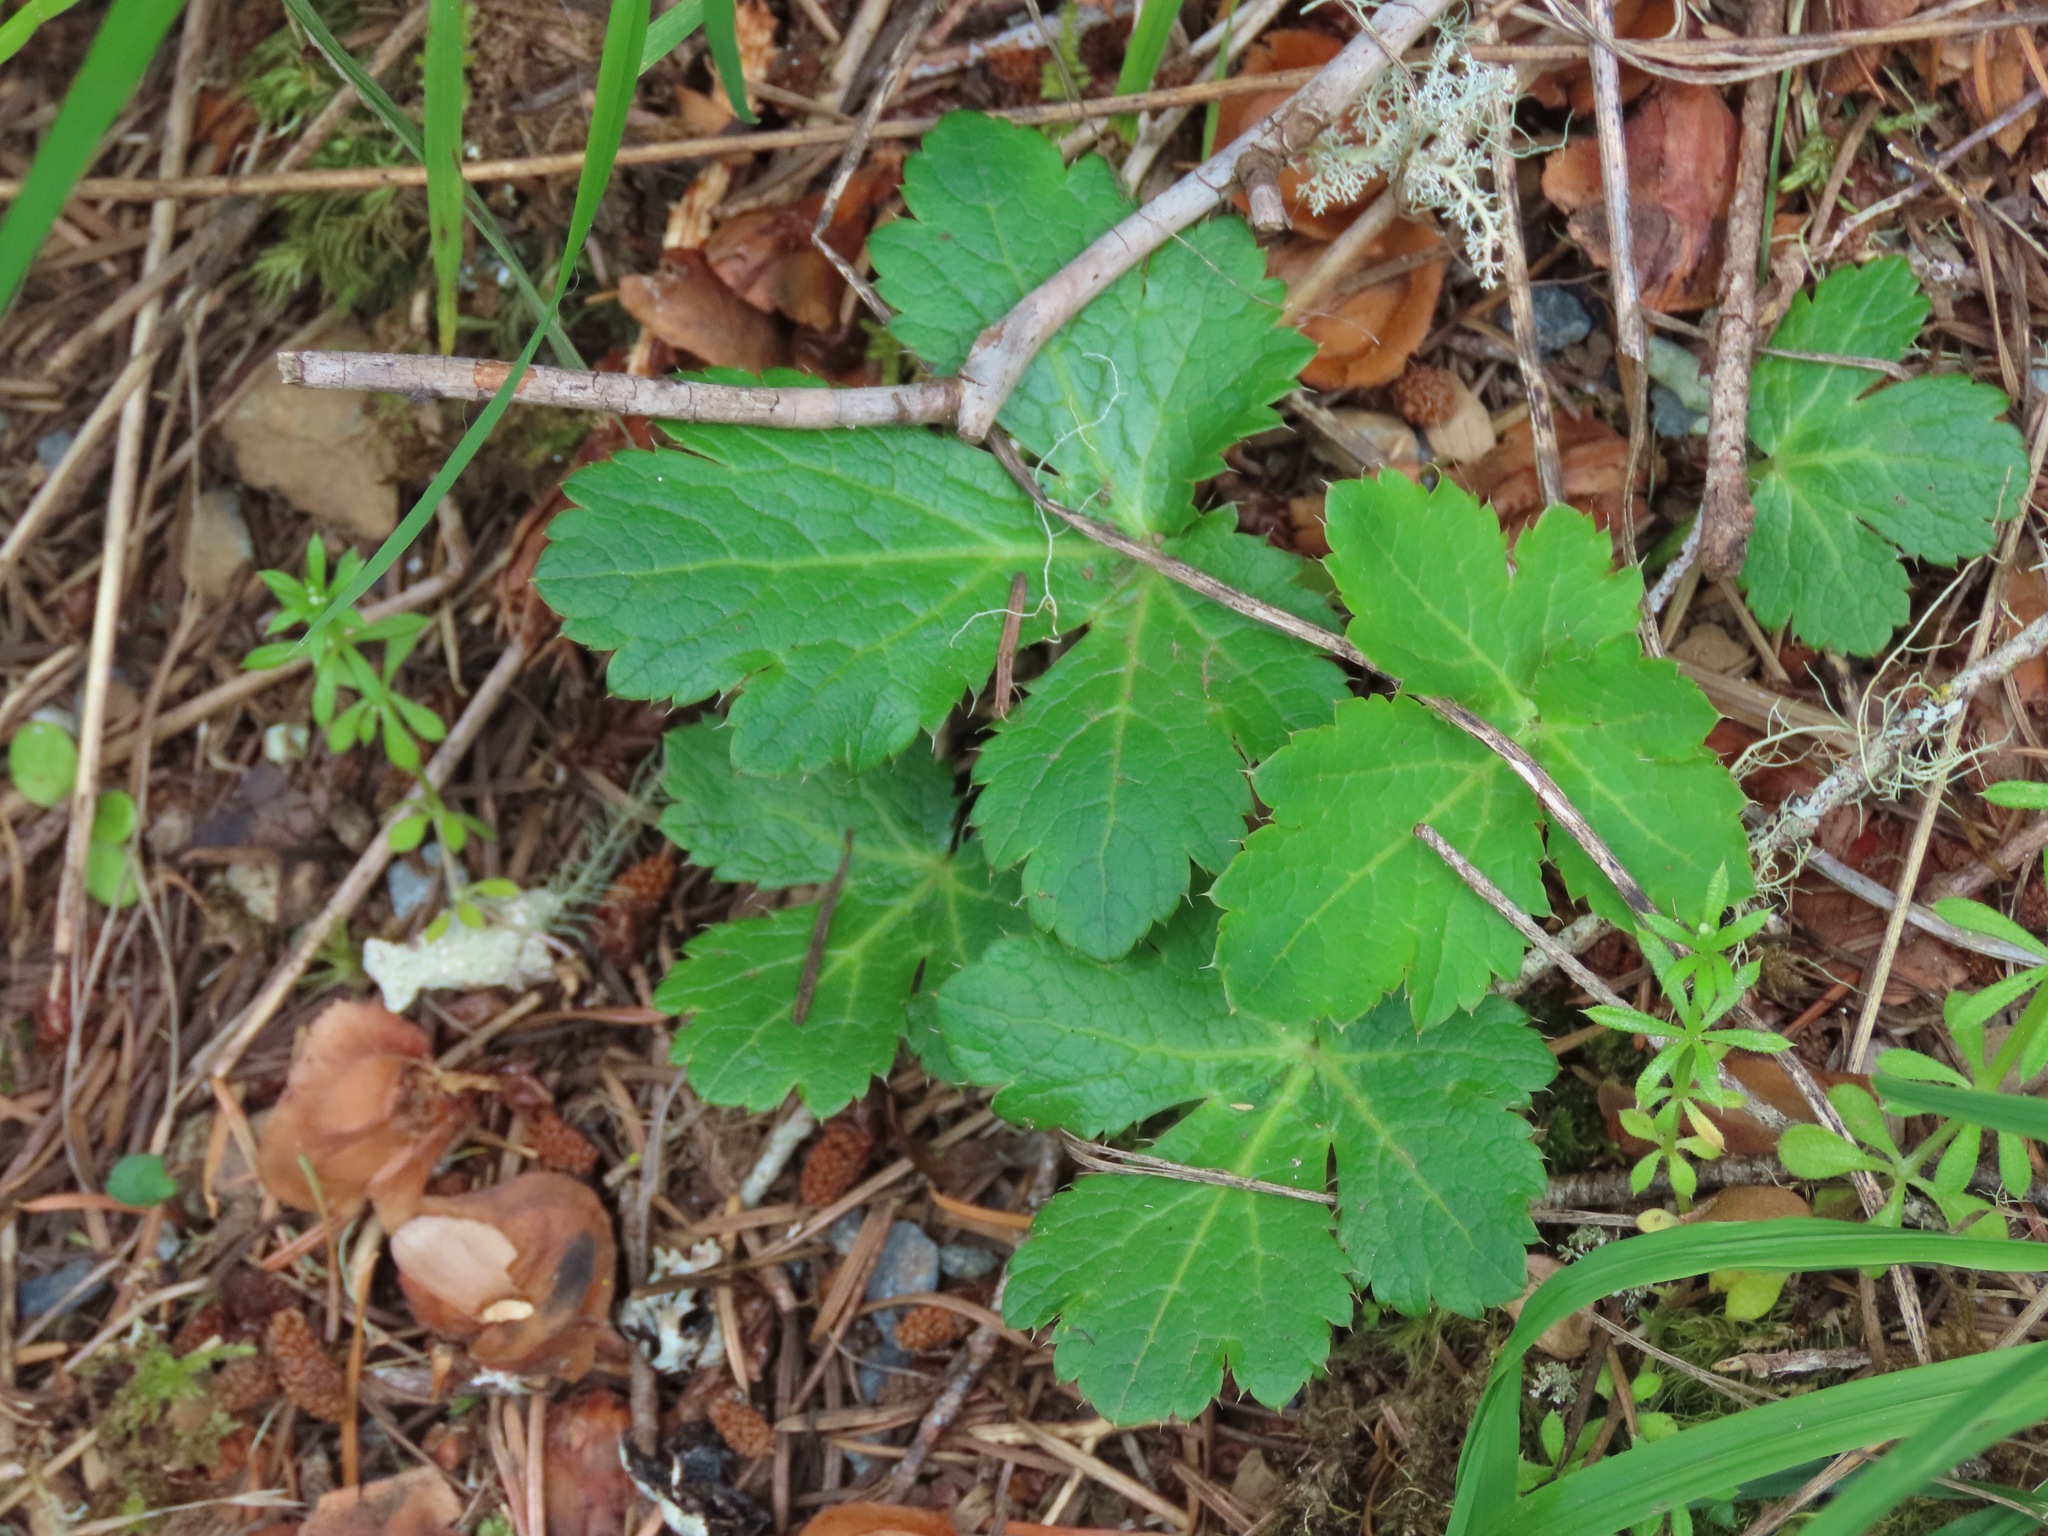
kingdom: Plantae
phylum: Tracheophyta
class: Magnoliopsida
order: Apiales
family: Apiaceae
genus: Sanicula
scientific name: Sanicula crassicaulis
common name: Western snakeroot
